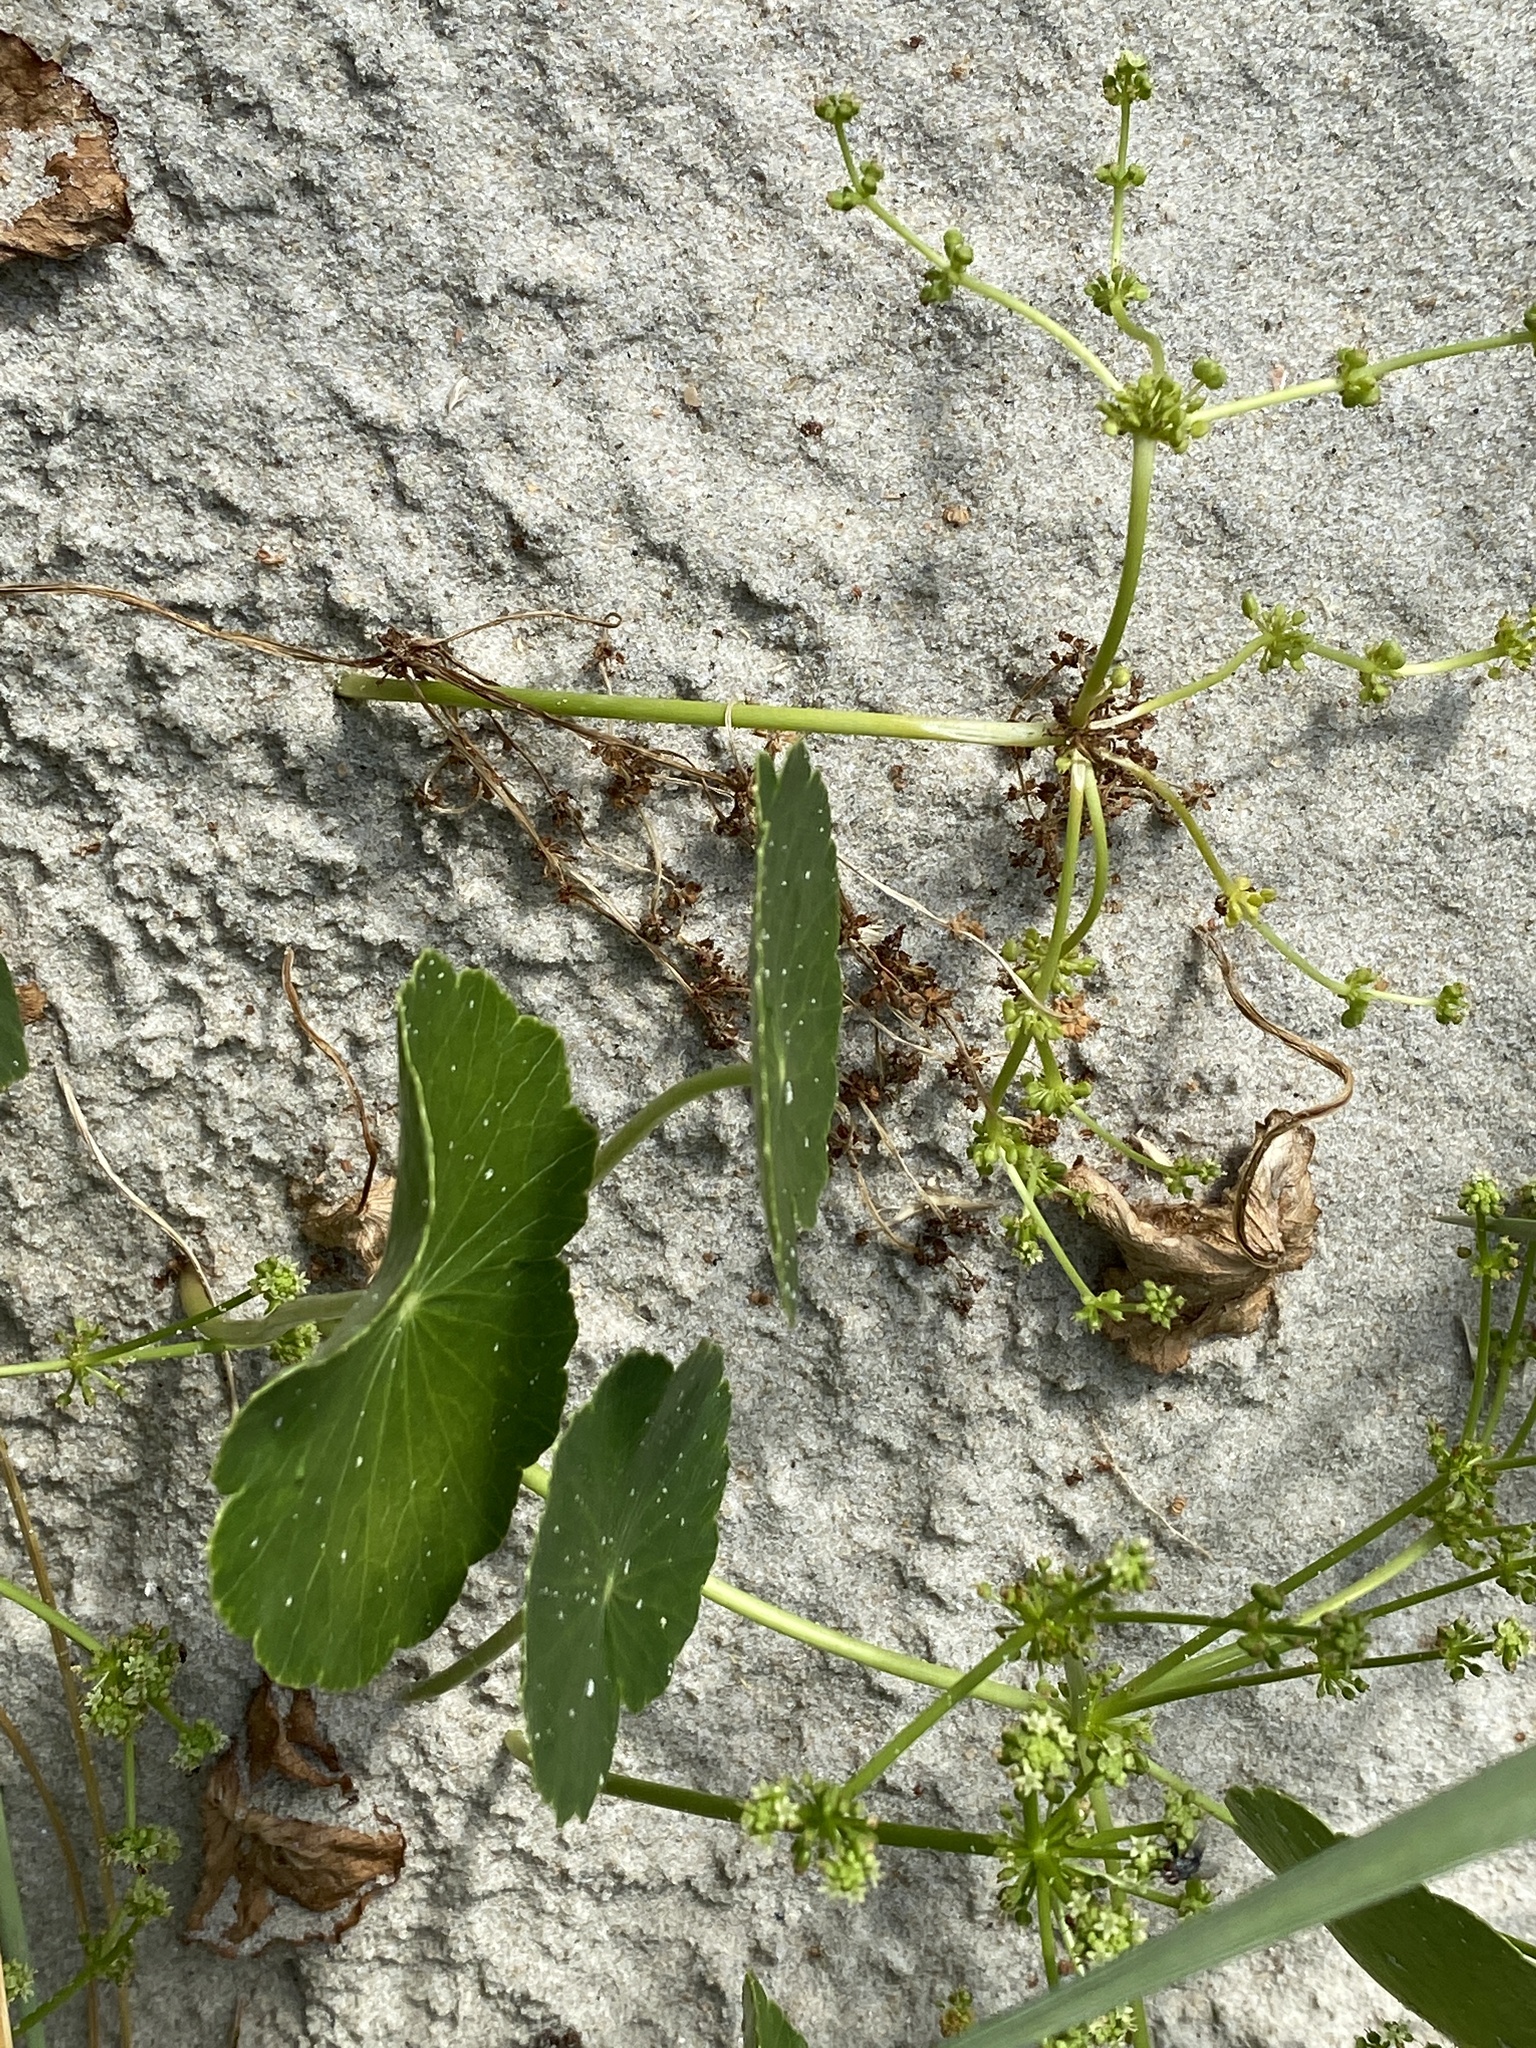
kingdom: Plantae
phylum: Tracheophyta
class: Magnoliopsida
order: Apiales
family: Araliaceae
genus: Hydrocotyle
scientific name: Hydrocotyle bonariensis
